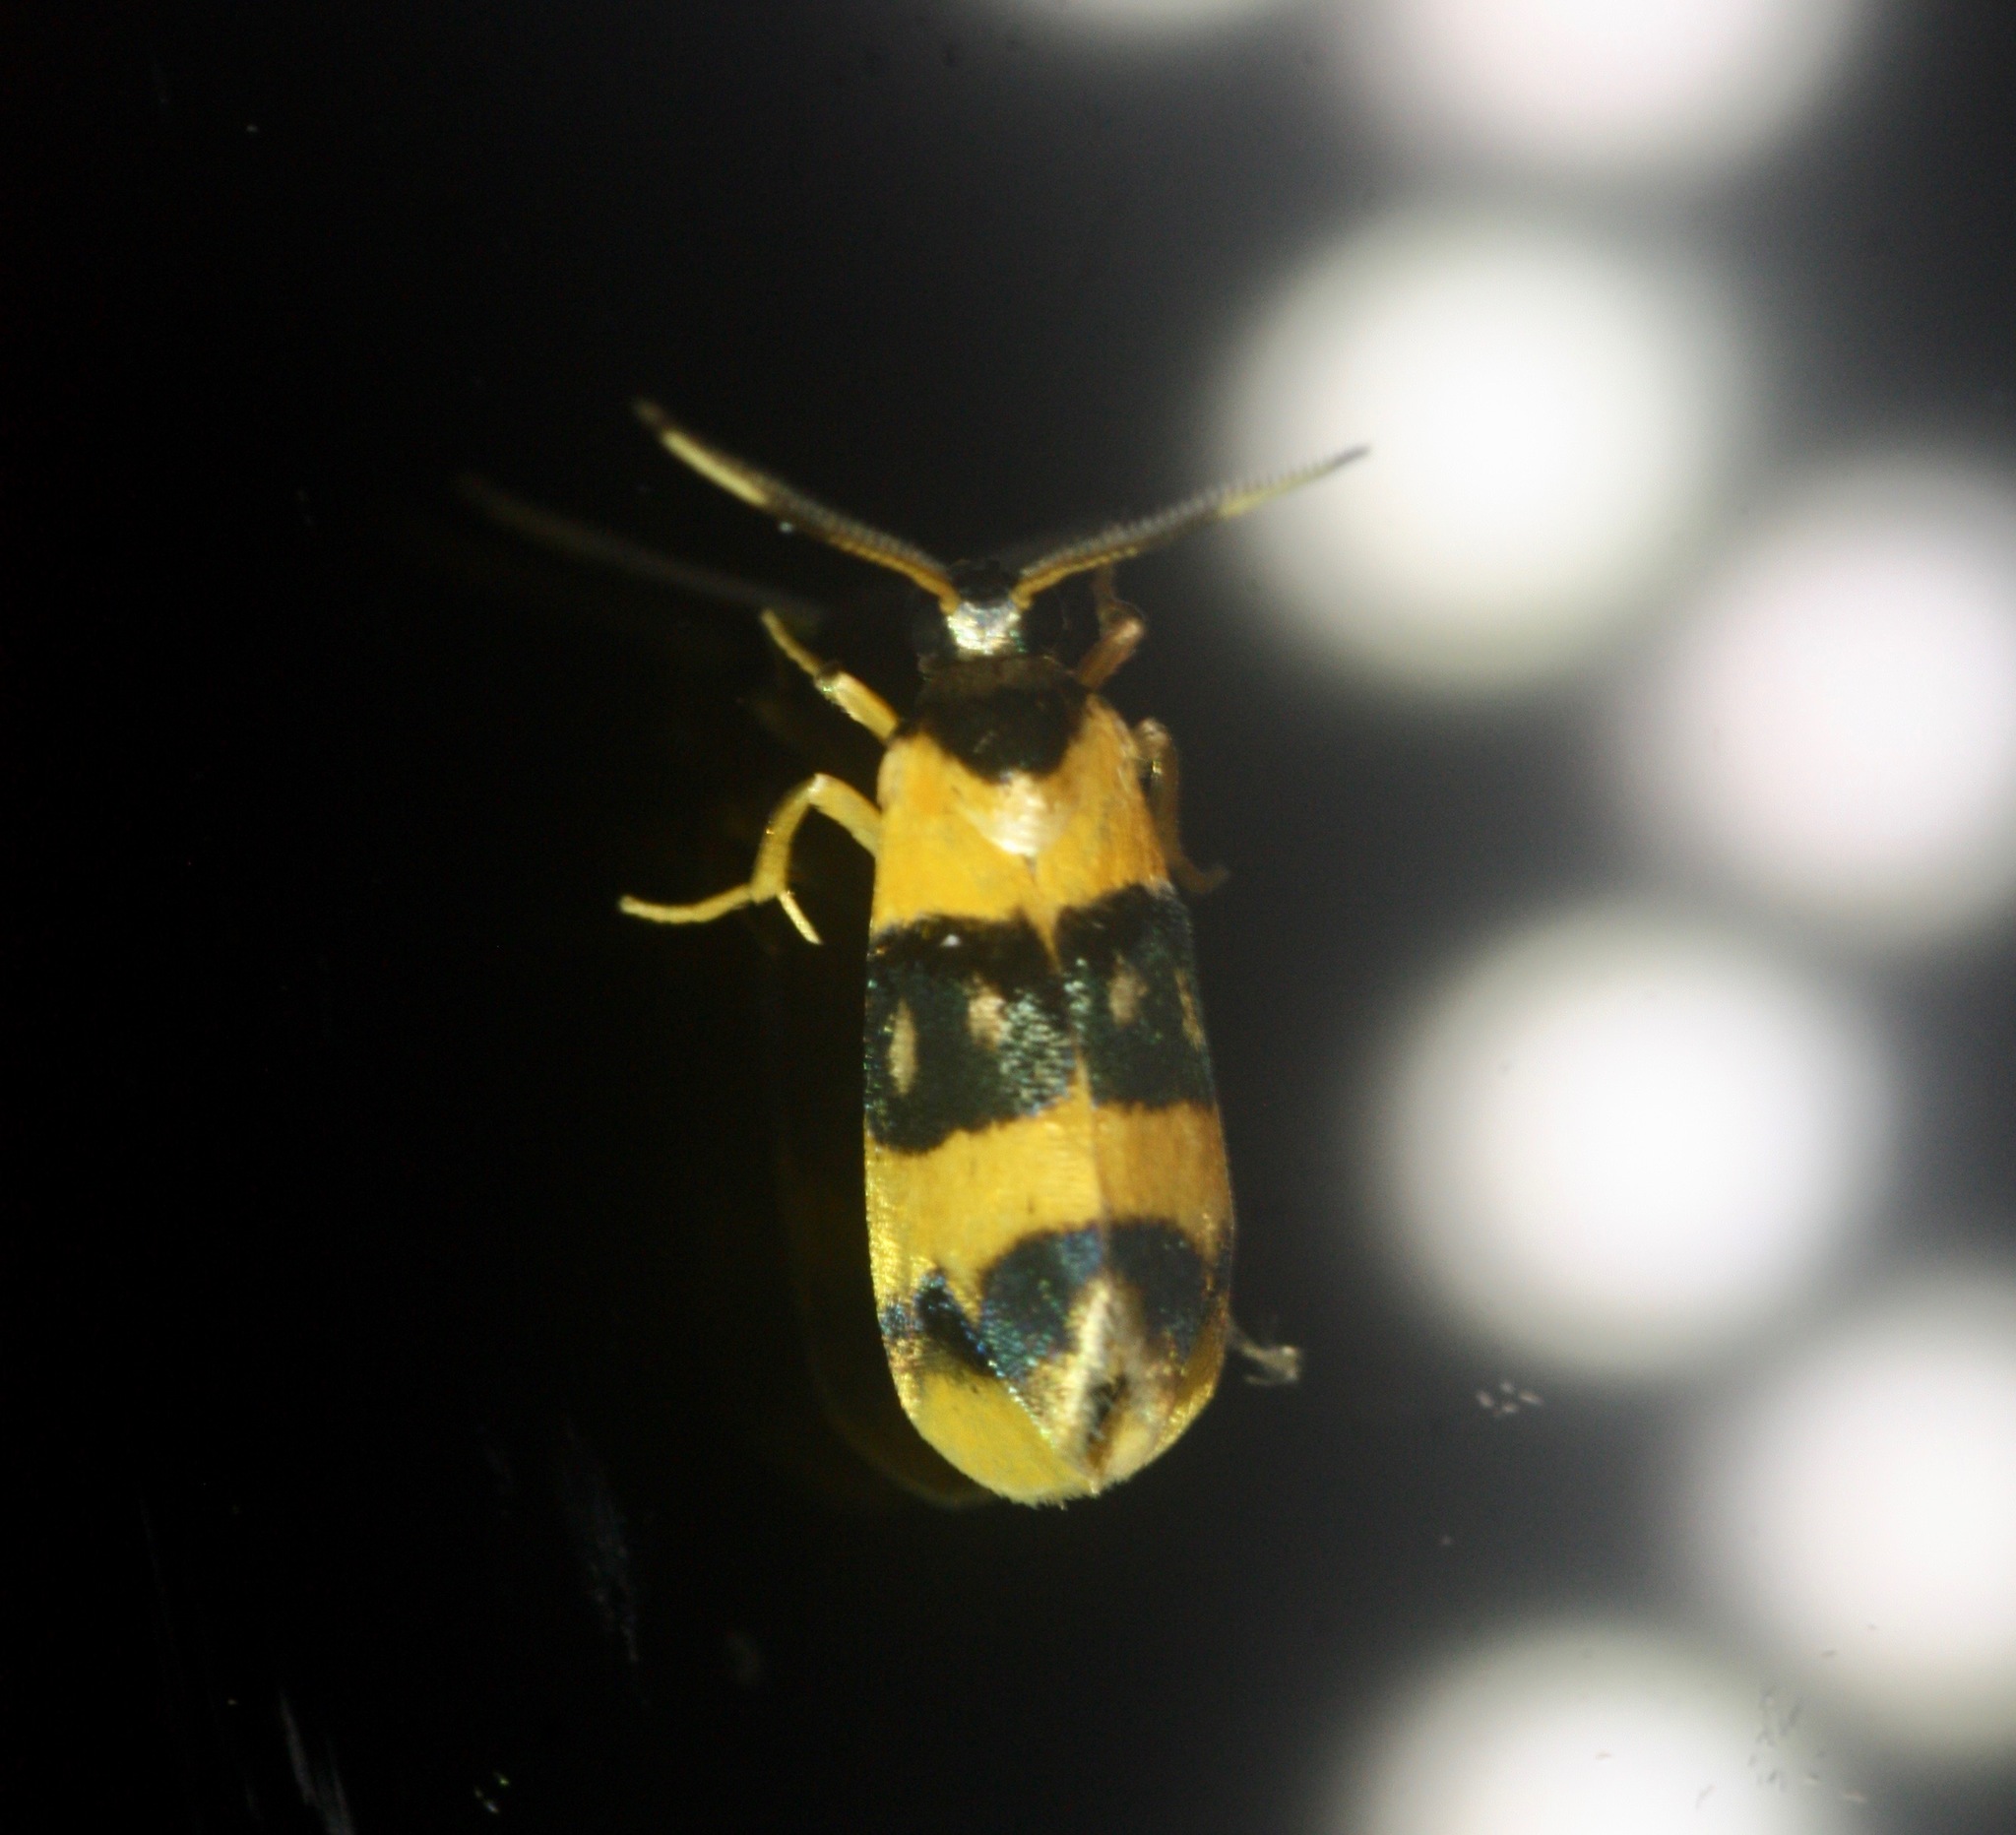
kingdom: Animalia
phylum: Arthropoda
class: Insecta
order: Lepidoptera
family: Erebidae
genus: Cisthene
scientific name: Cisthene croesus
